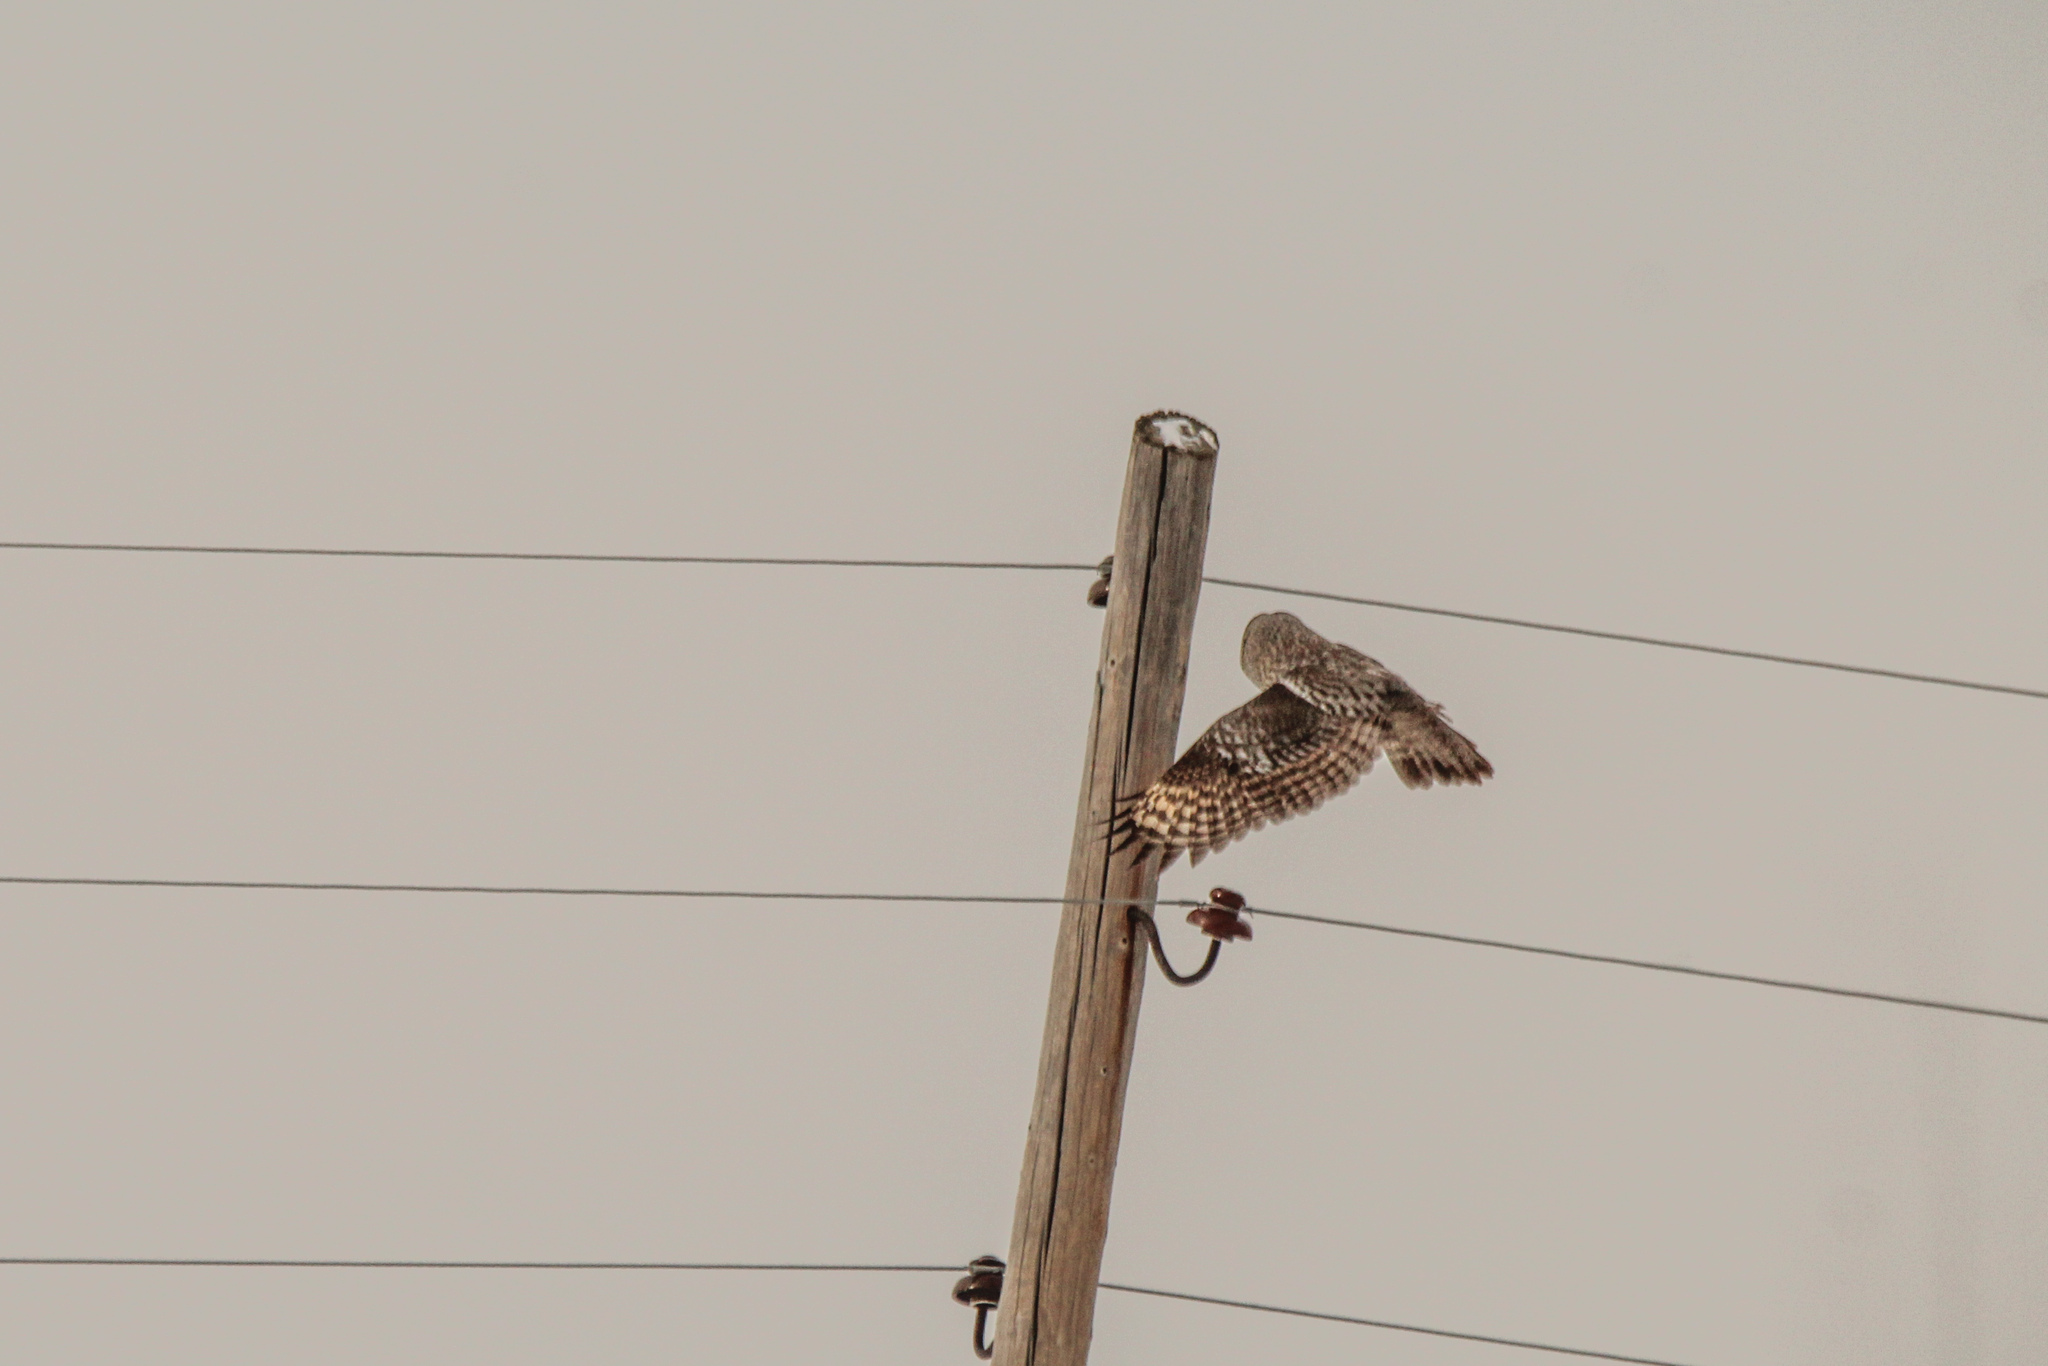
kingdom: Animalia
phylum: Chordata
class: Aves
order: Strigiformes
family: Strigidae
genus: Strix
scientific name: Strix nebulosa
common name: Great grey owl
